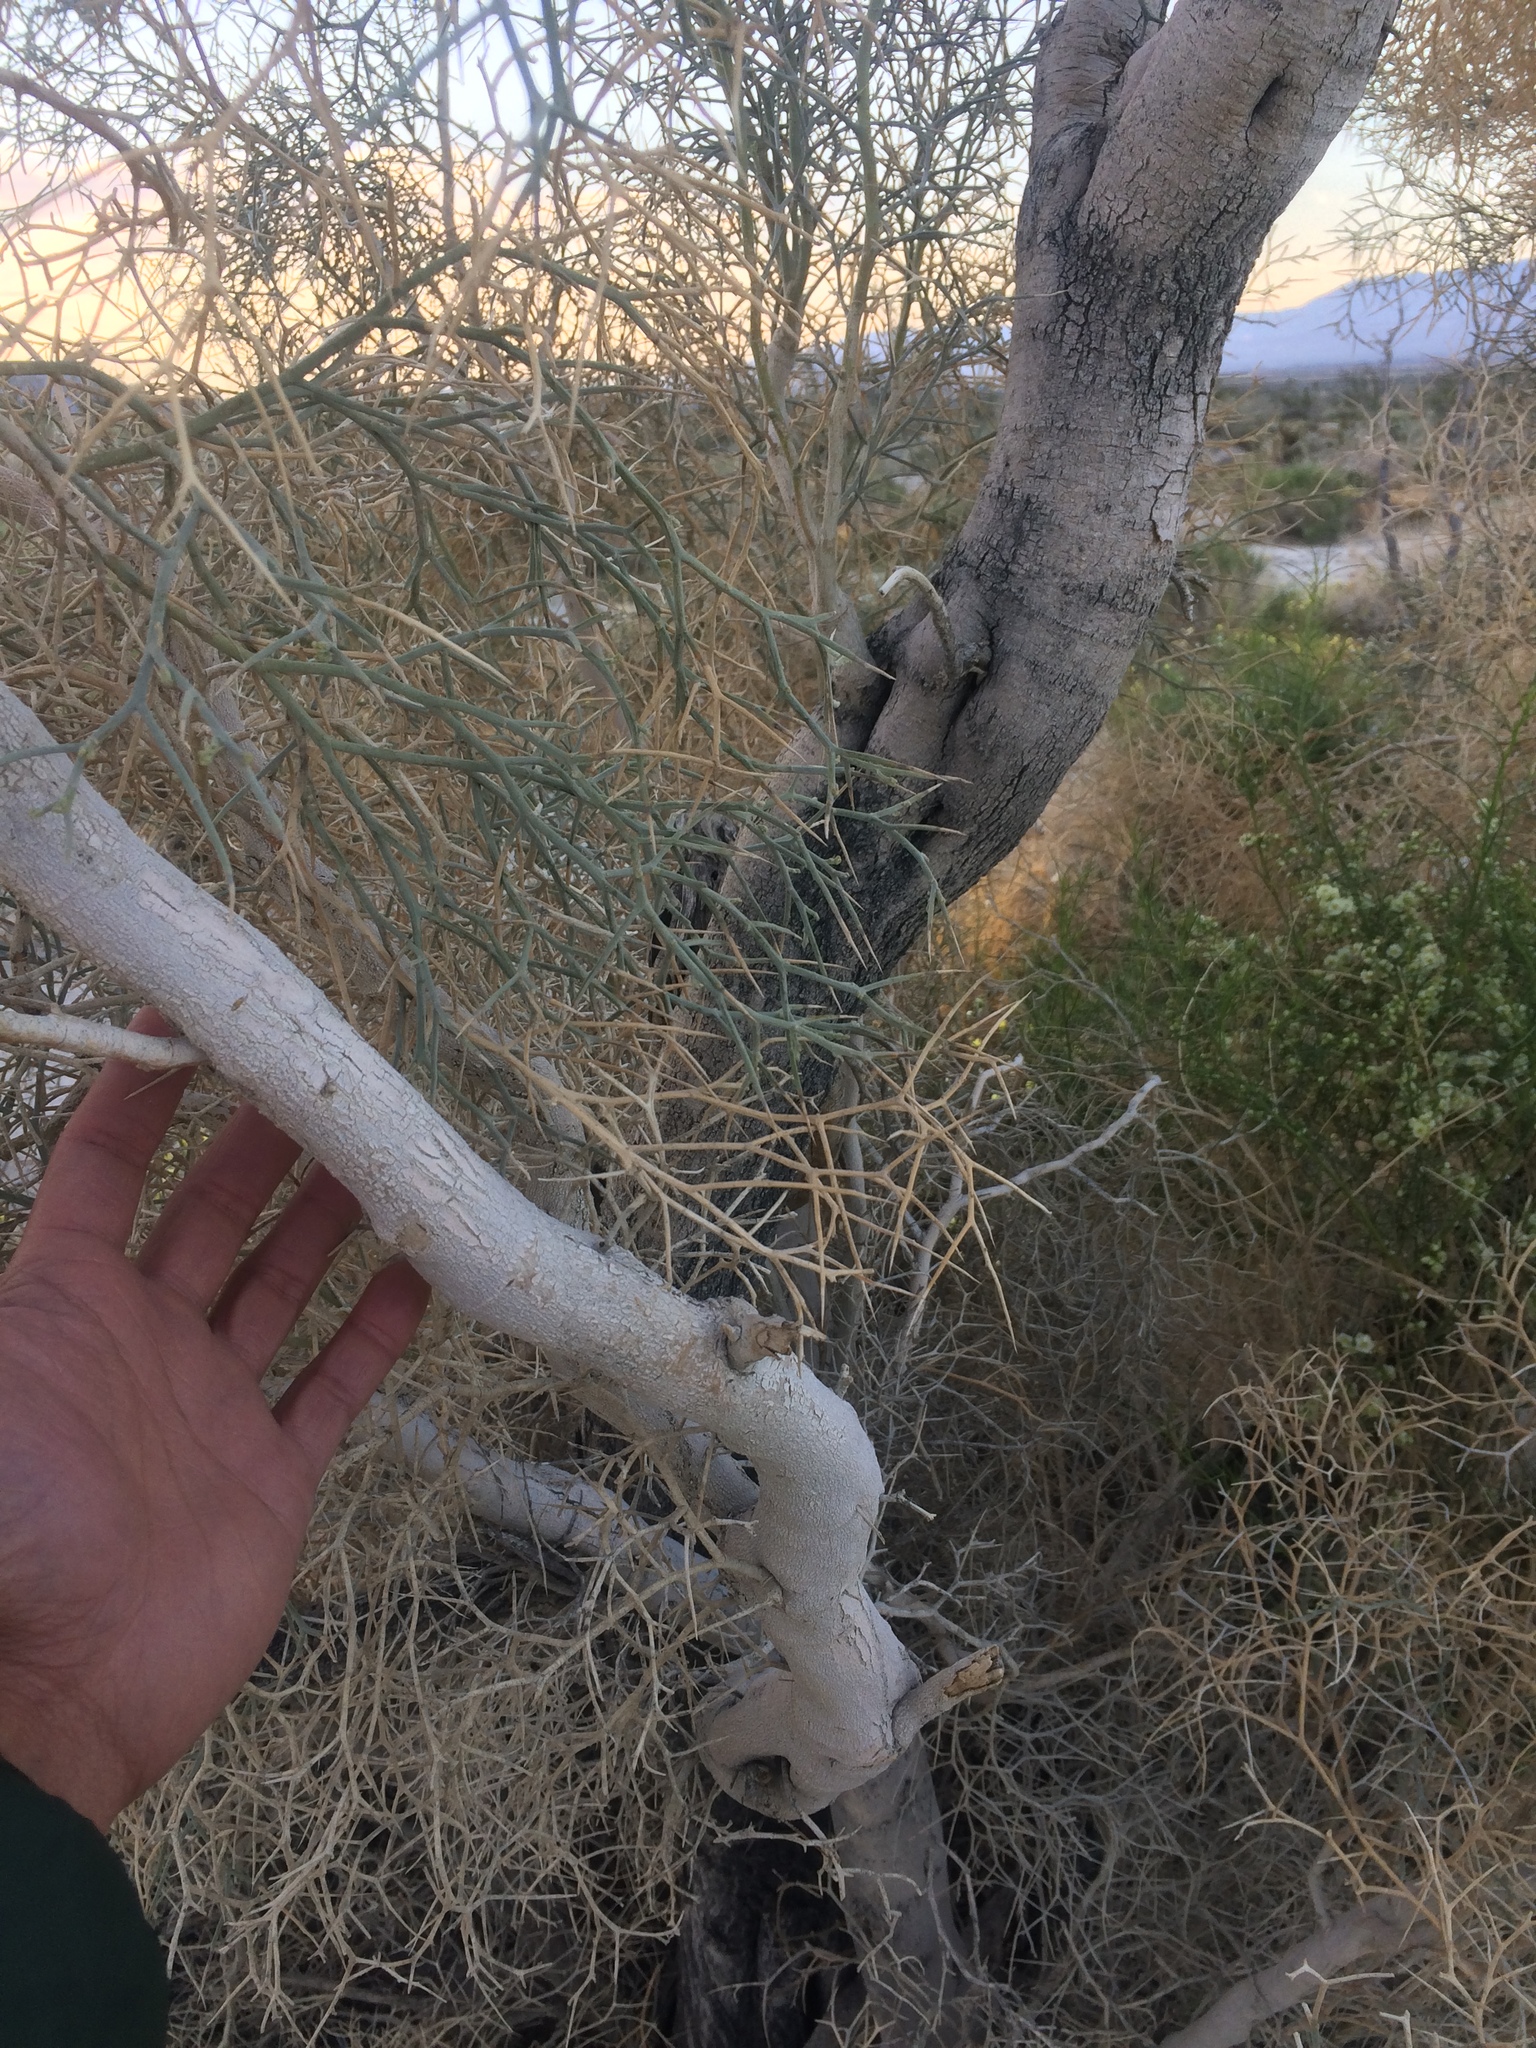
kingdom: Plantae
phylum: Tracheophyta
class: Magnoliopsida
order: Fabales
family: Fabaceae
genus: Psorothamnus
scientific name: Psorothamnus spinosus
